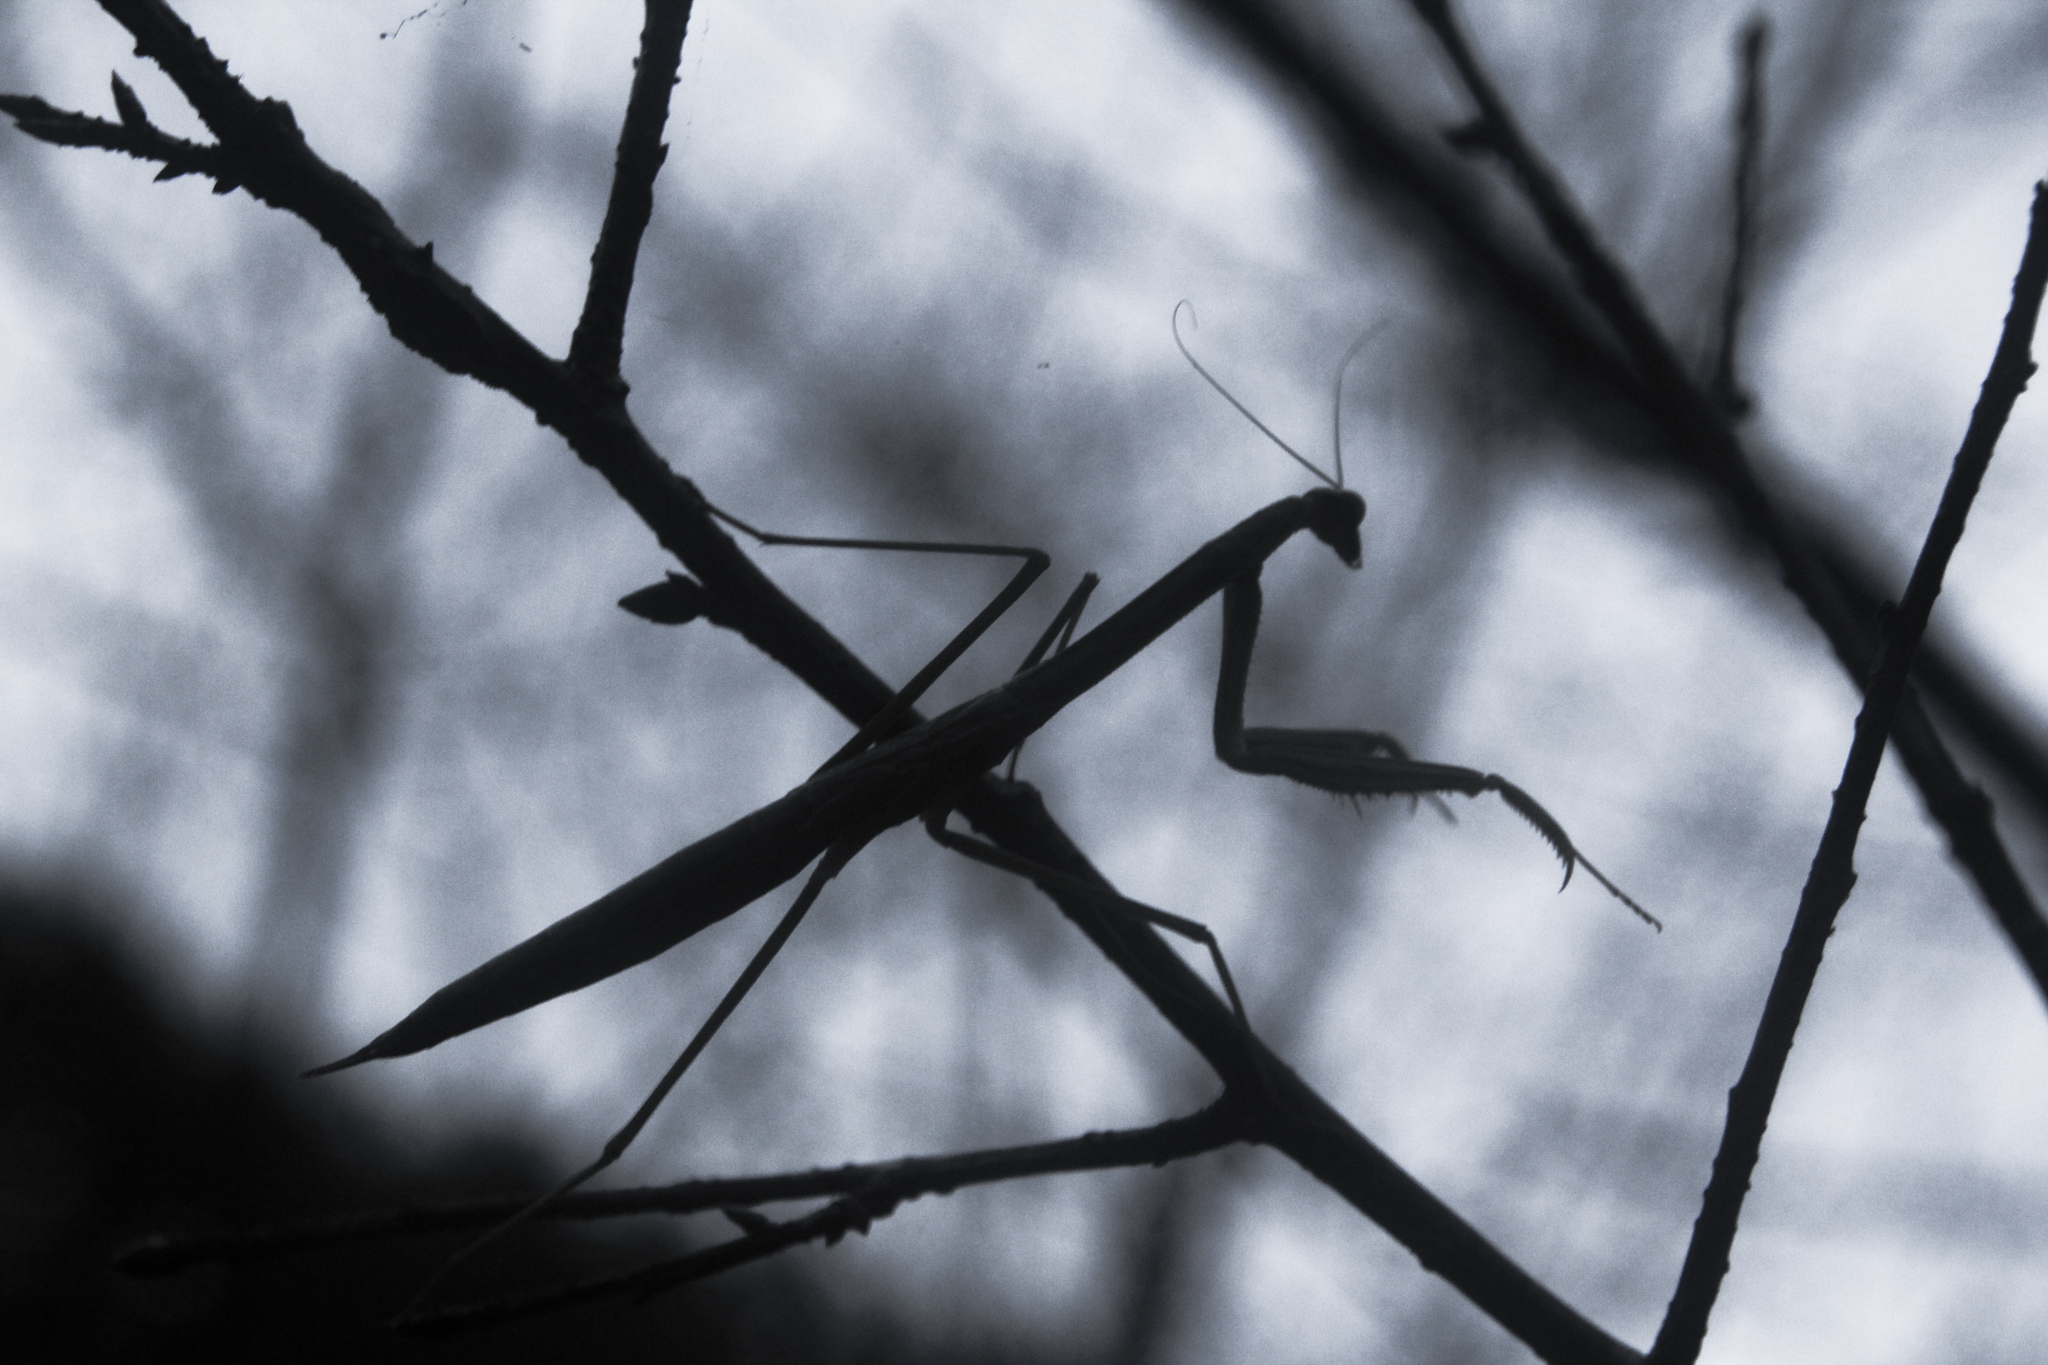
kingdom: Animalia
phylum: Arthropoda
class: Insecta
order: Mantodea
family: Mantidae
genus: Tenodera
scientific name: Tenodera aridifolia
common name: Mantis
